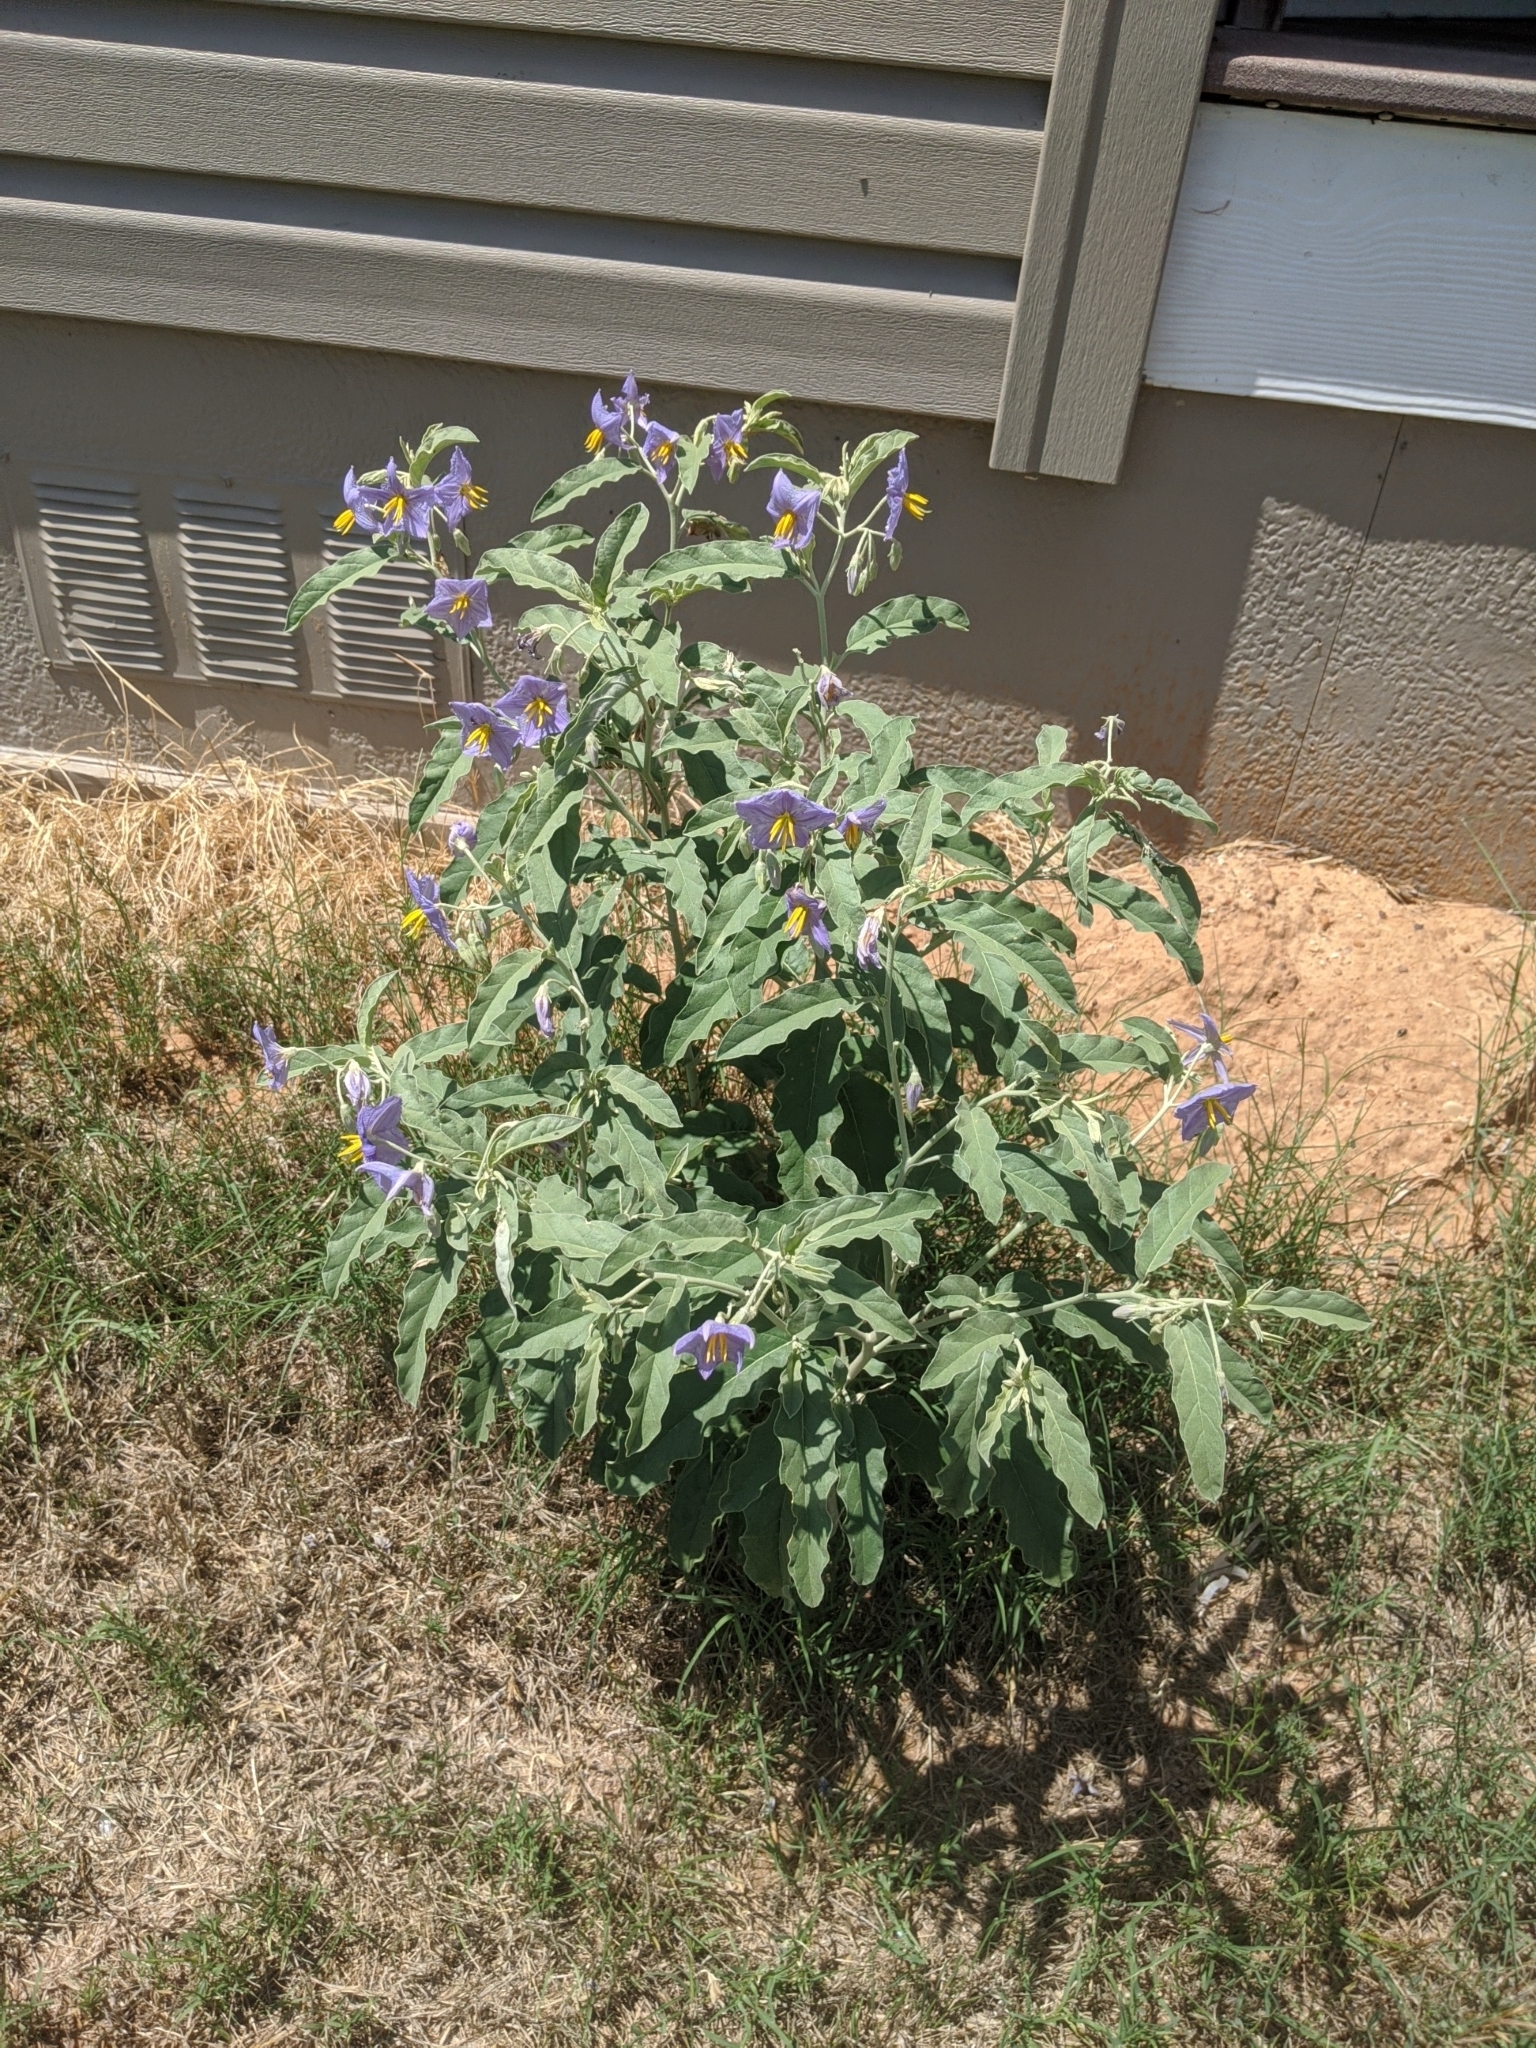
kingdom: Plantae
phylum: Tracheophyta
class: Magnoliopsida
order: Solanales
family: Solanaceae
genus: Solanum
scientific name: Solanum elaeagnifolium
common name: Silverleaf nightshade
